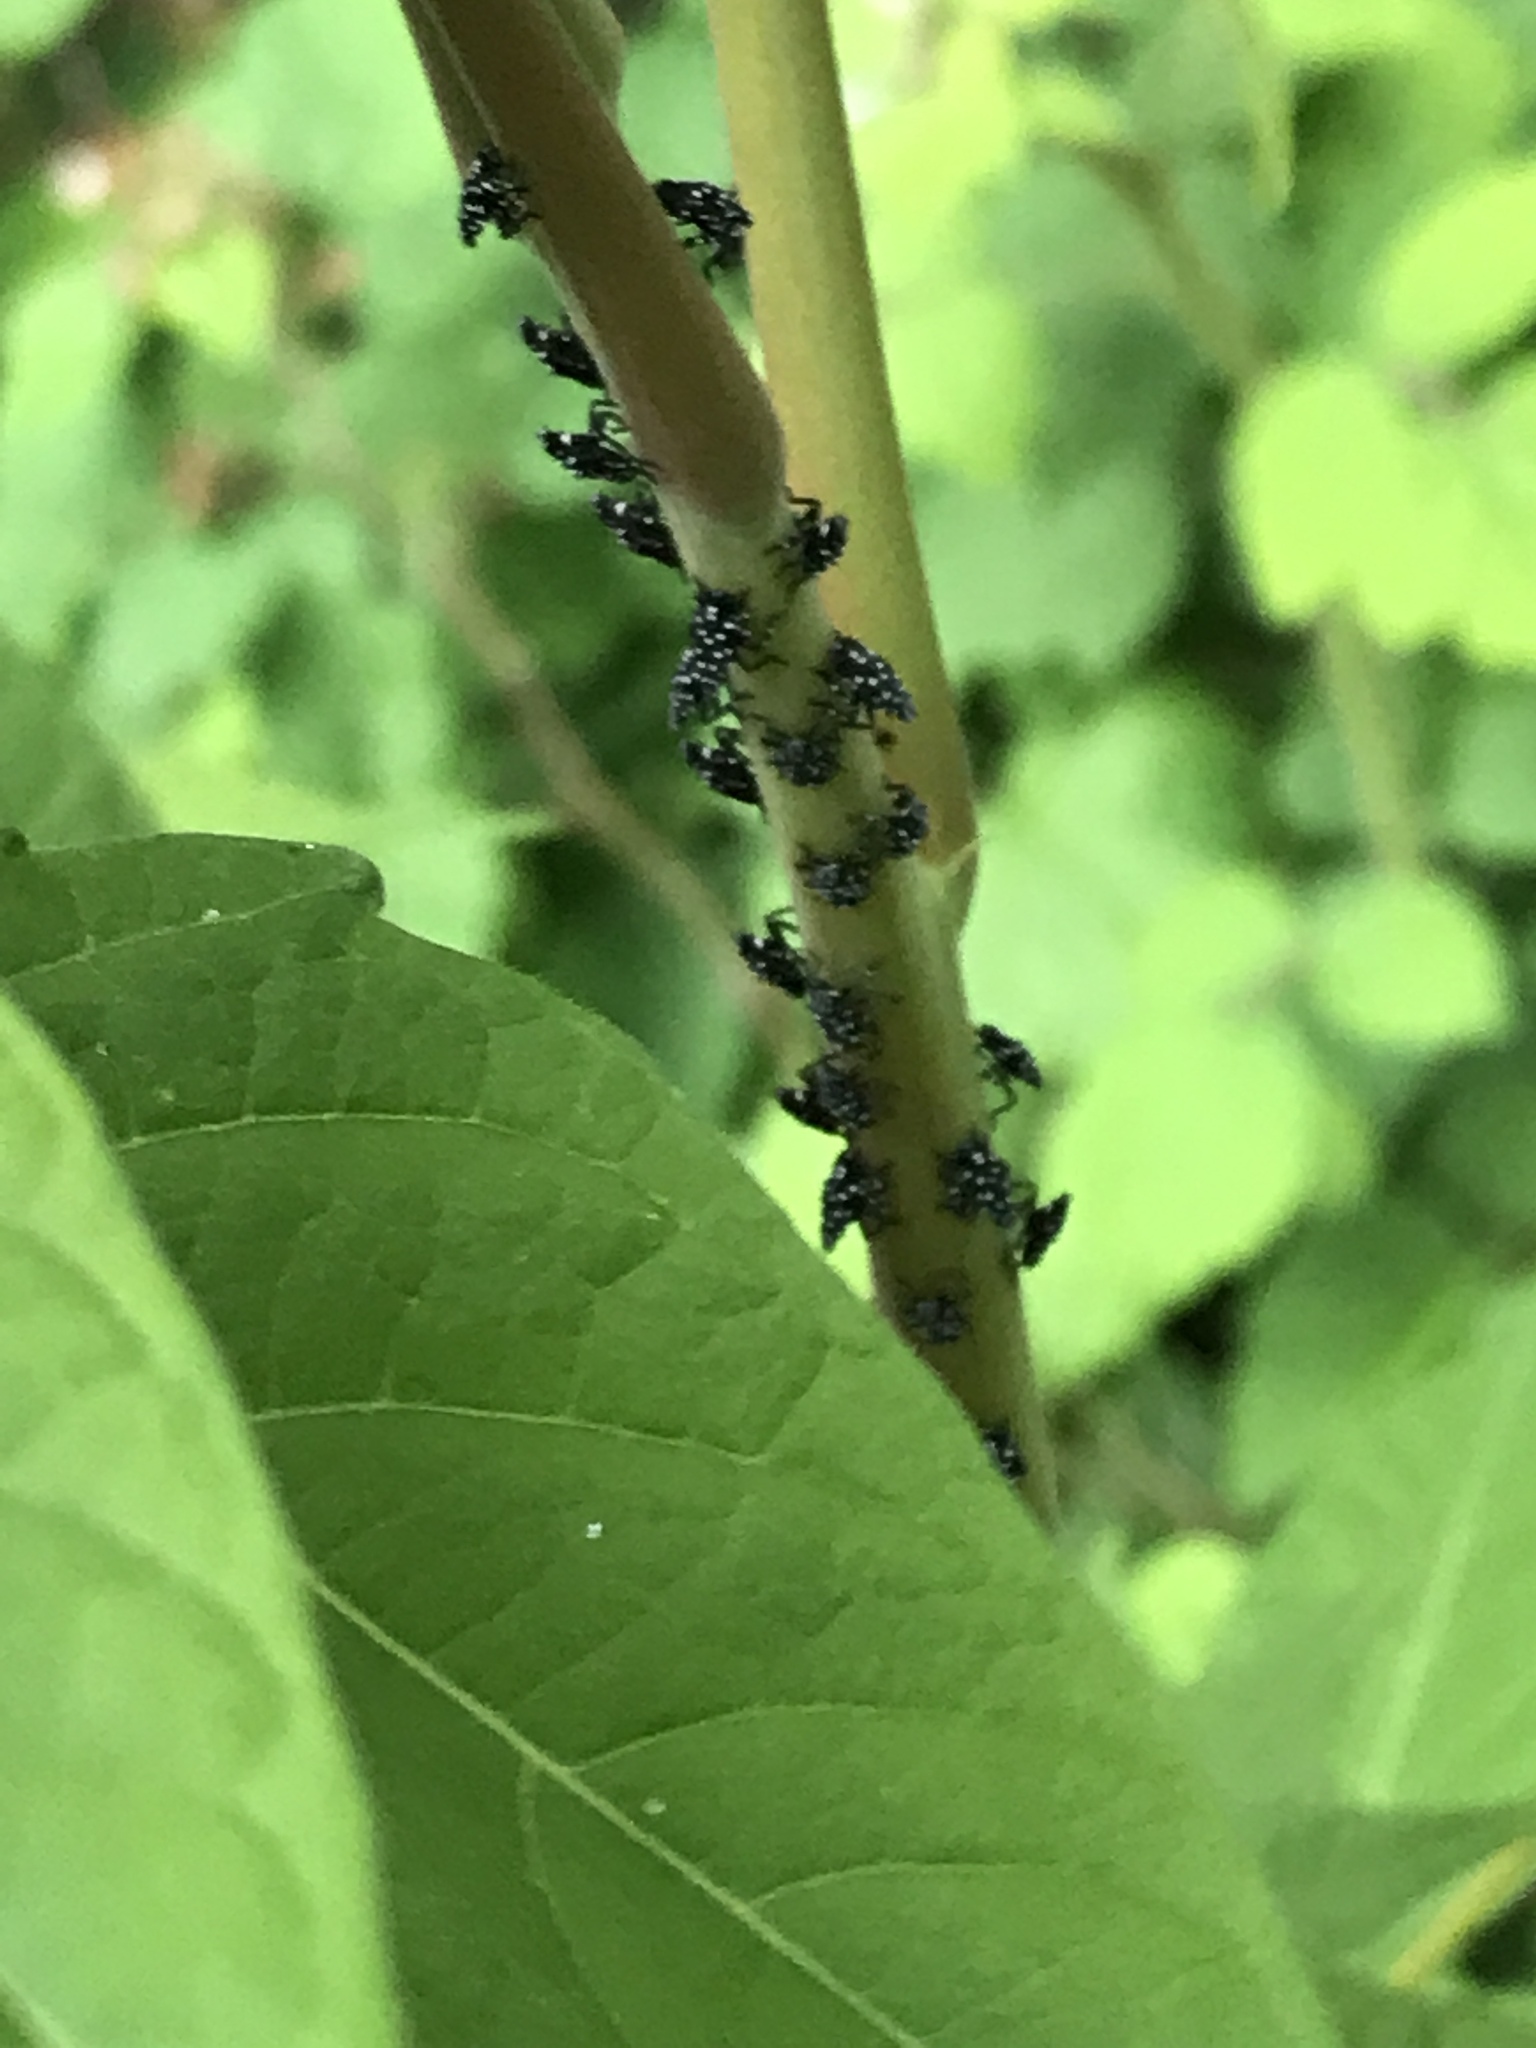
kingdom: Animalia
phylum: Arthropoda
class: Insecta
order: Hemiptera
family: Fulgoridae
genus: Lycorma
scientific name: Lycorma delicatula
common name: Spotted lanternfly
